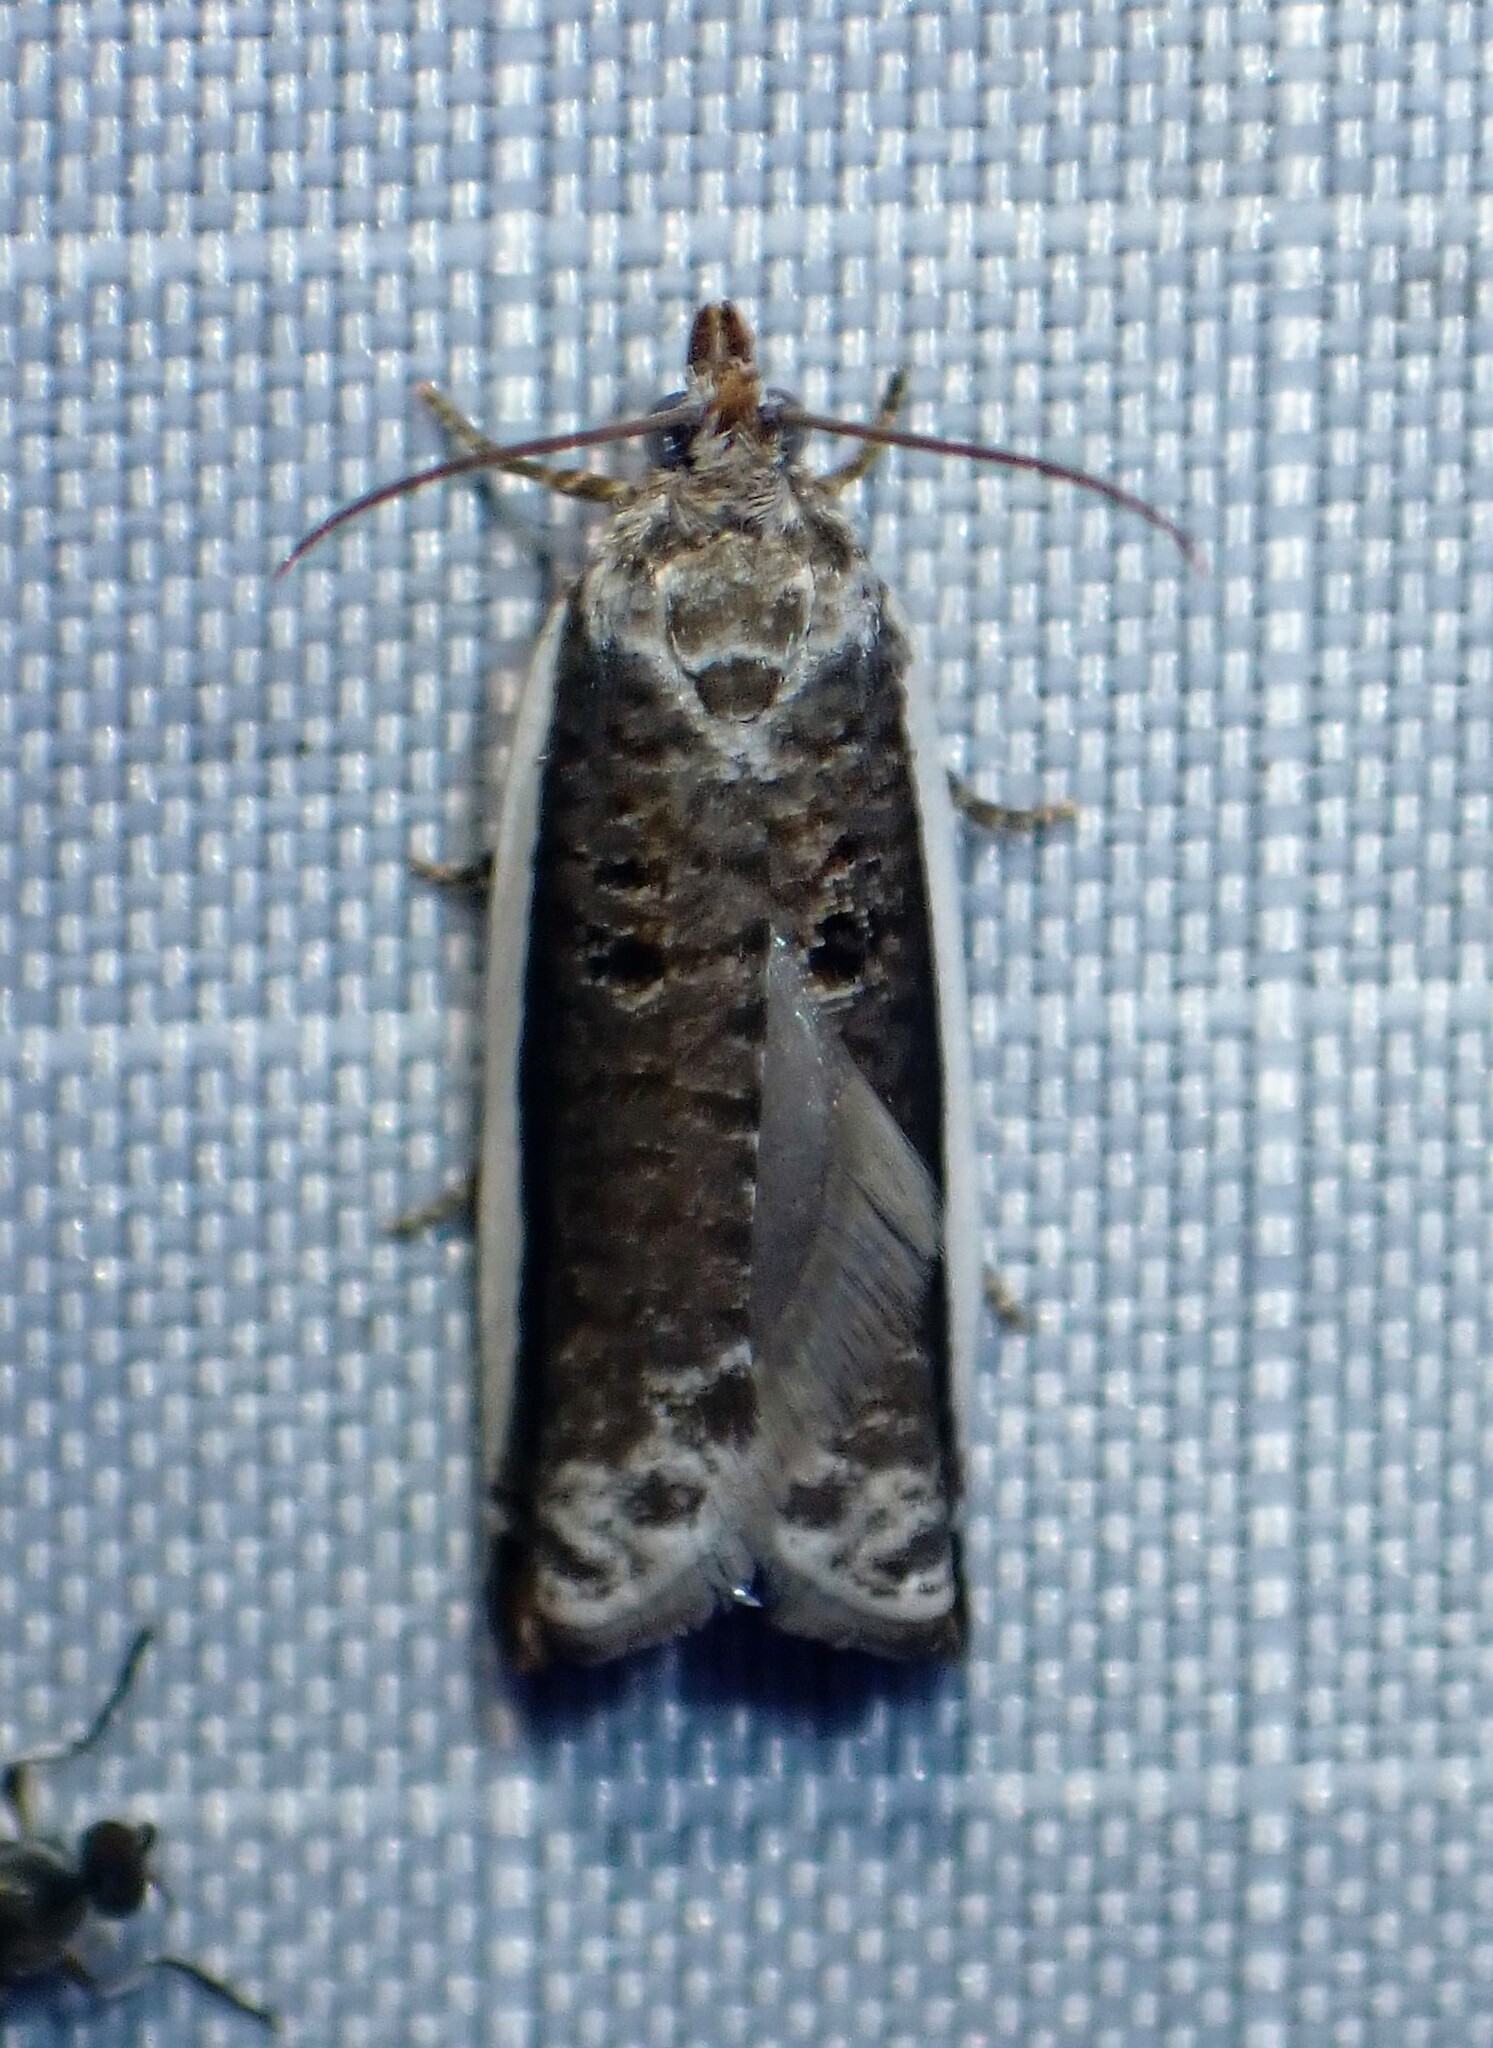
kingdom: Animalia
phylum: Arthropoda
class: Insecta
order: Lepidoptera
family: Tortricidae
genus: Ancylis
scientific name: Ancylis albacostana
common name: White-edged ancylis moth
